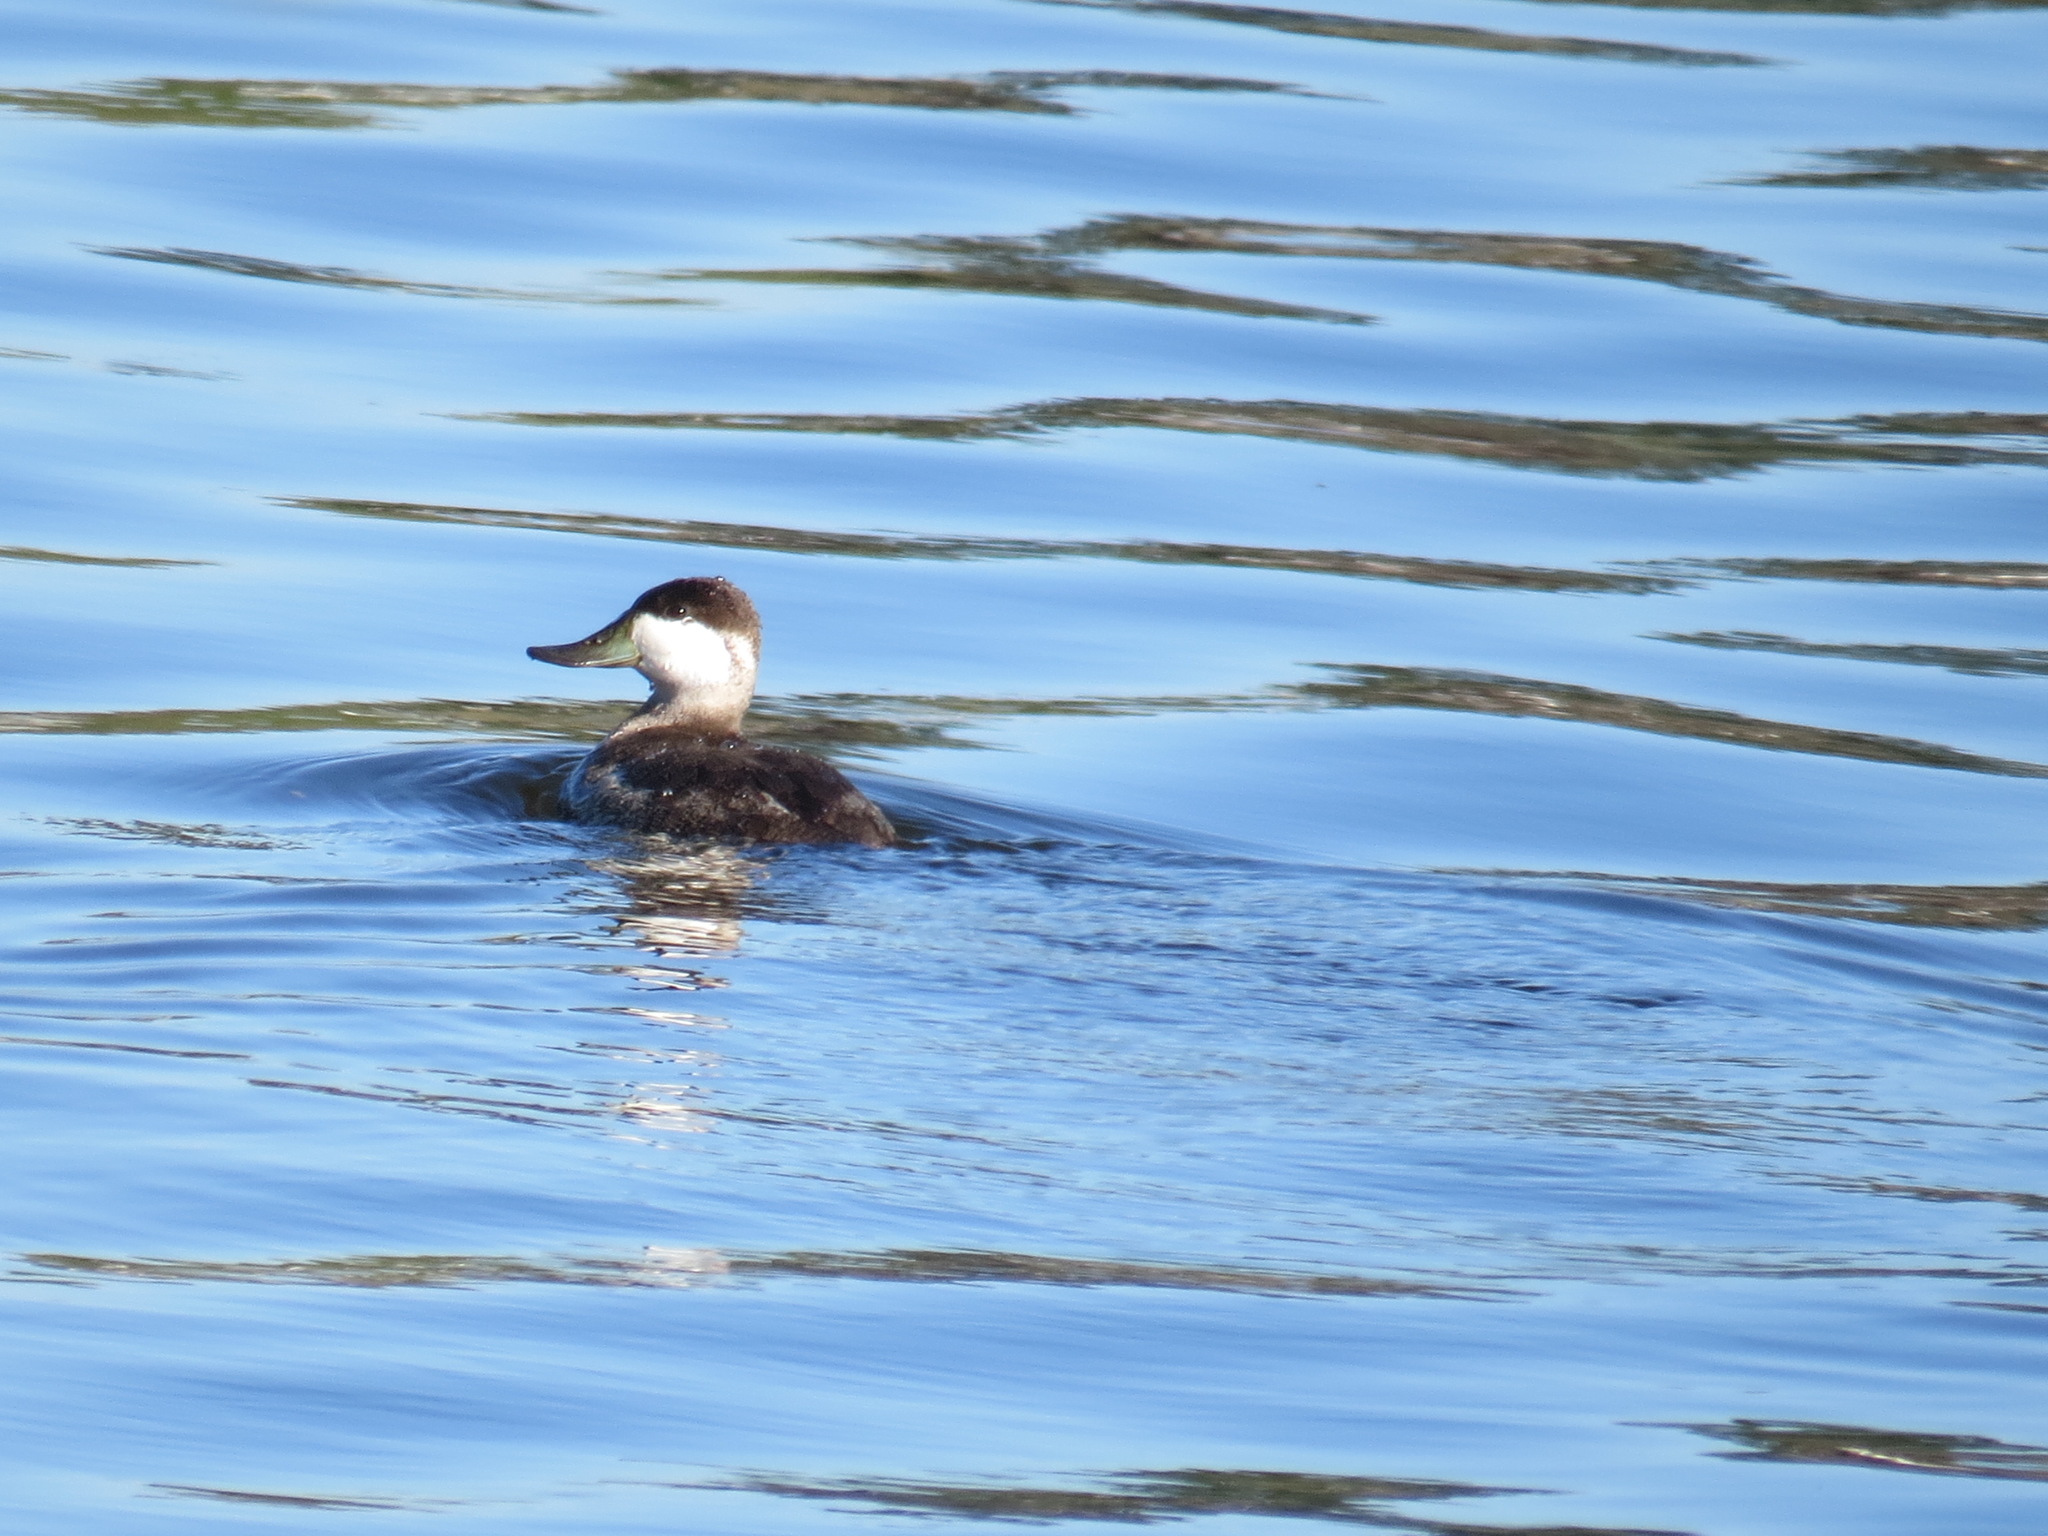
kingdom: Animalia
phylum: Chordata
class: Aves
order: Anseriformes
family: Anatidae
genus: Oxyura
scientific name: Oxyura jamaicensis
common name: Ruddy duck
